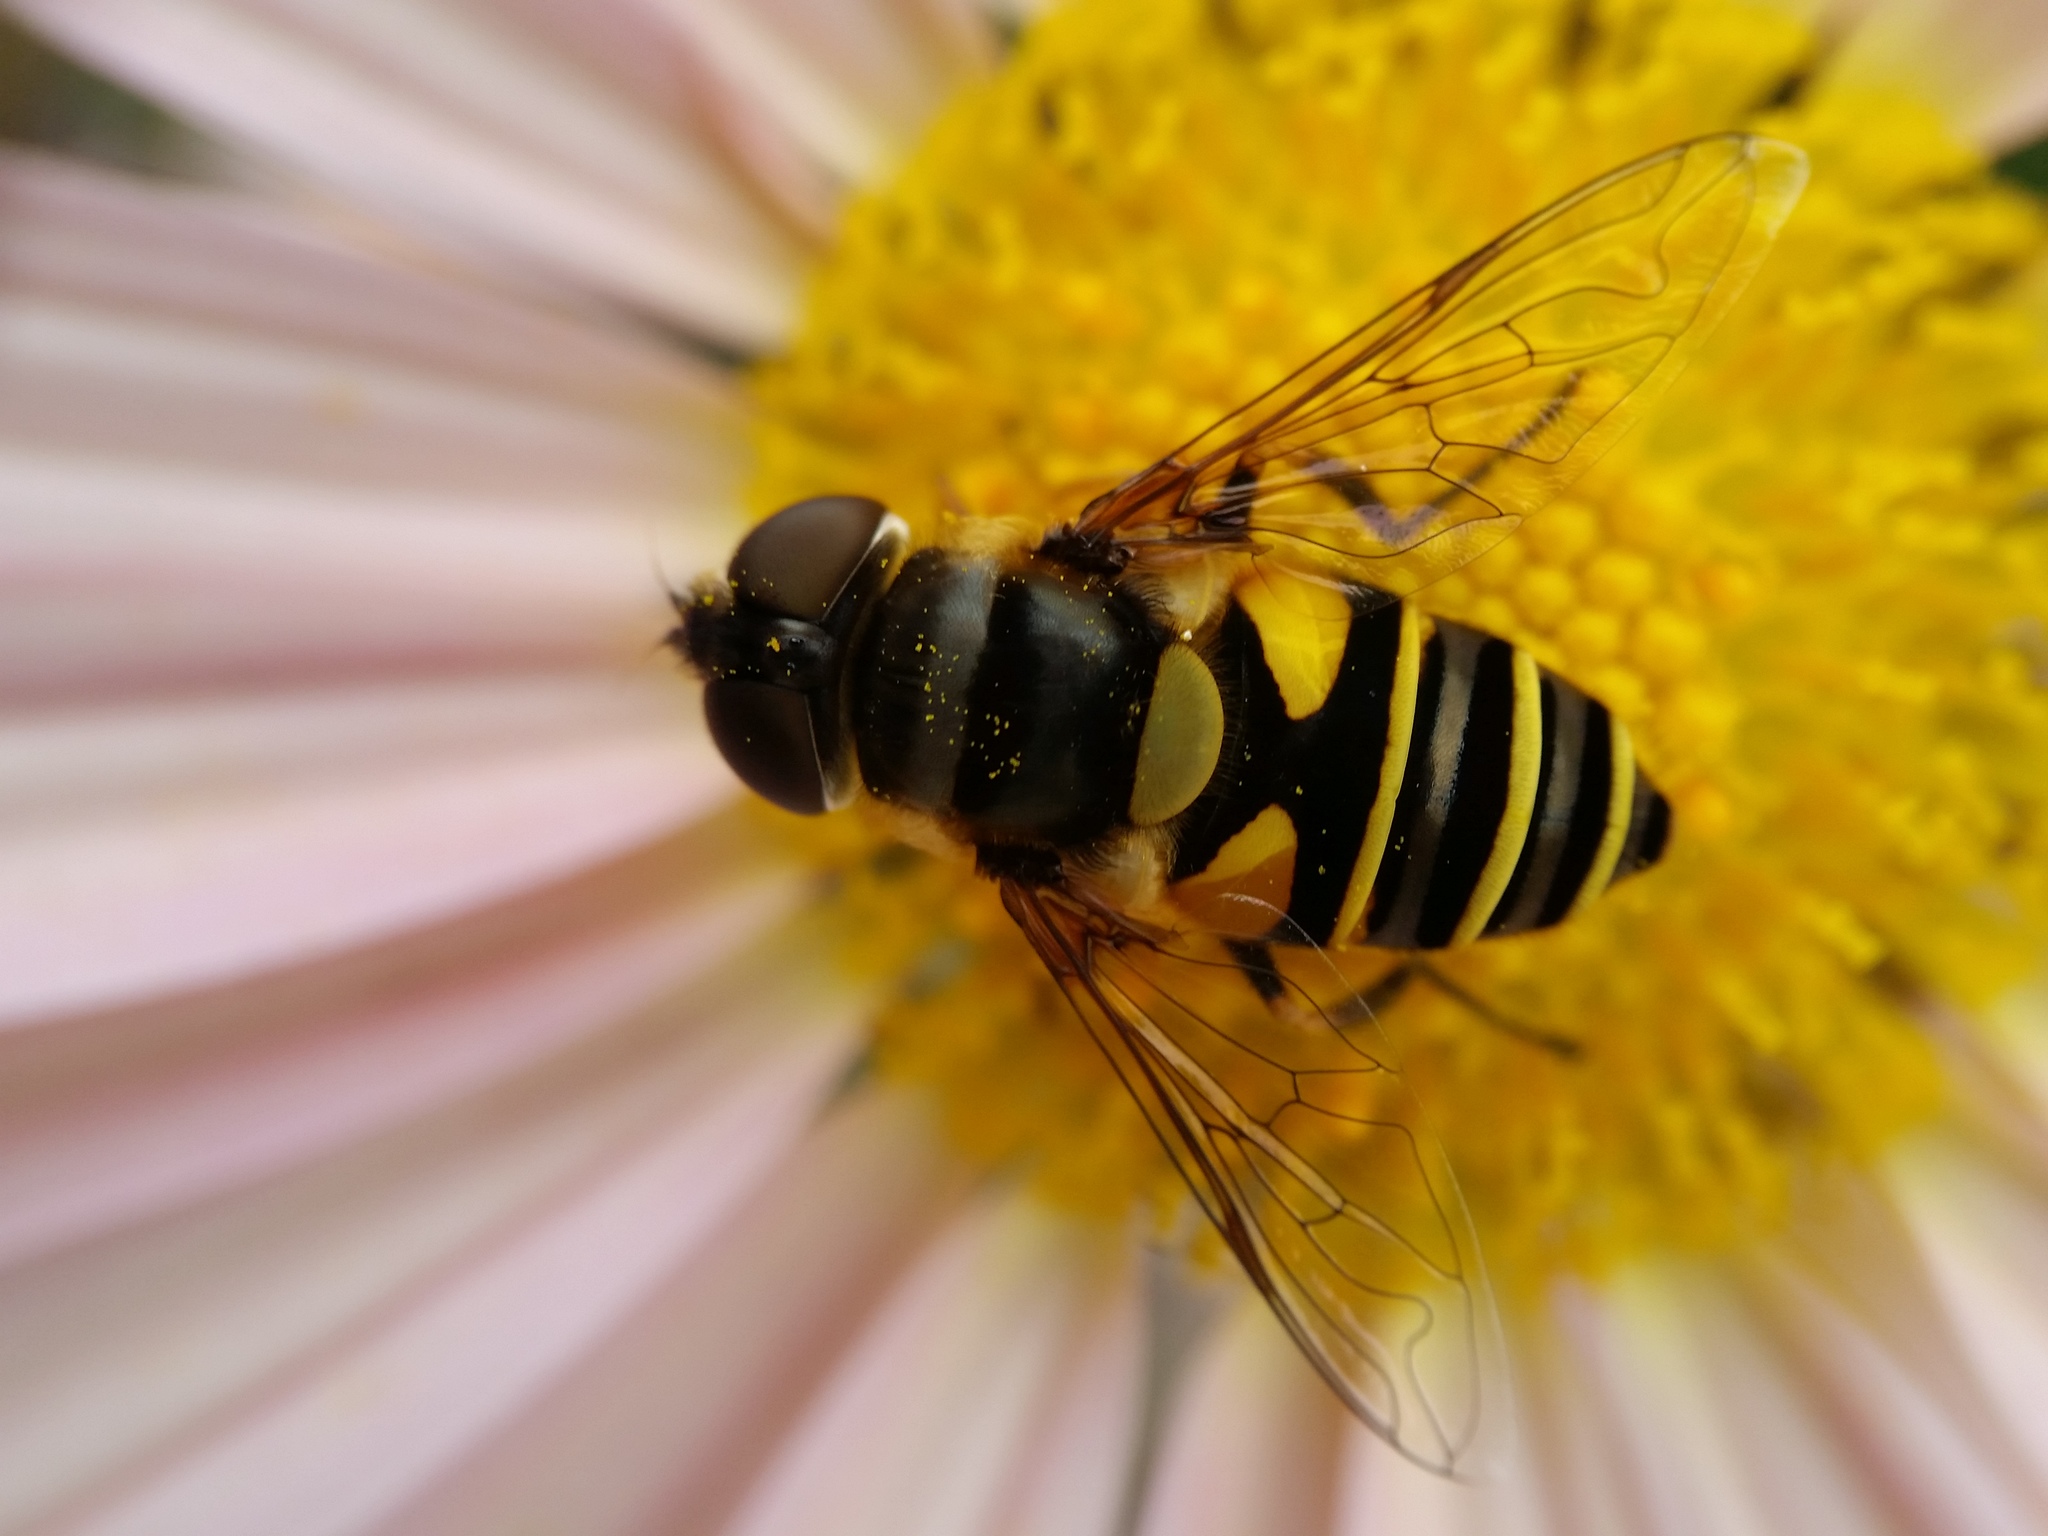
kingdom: Animalia
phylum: Arthropoda
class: Insecta
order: Diptera
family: Syrphidae
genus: Eristalis
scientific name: Eristalis transversa
